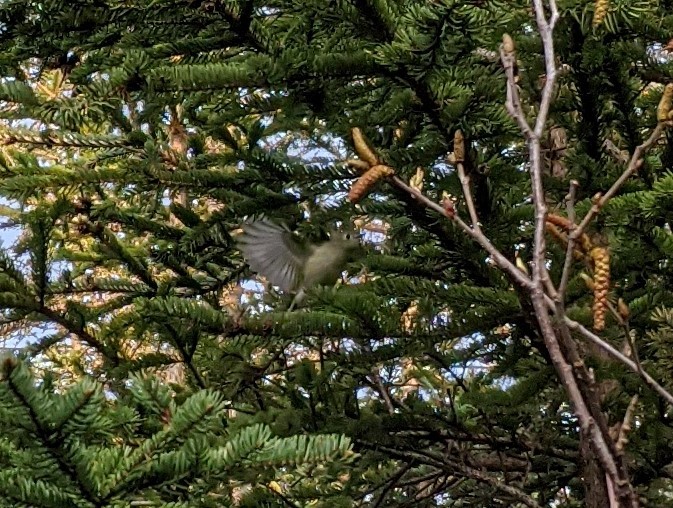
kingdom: Animalia
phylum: Chordata
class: Aves
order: Passeriformes
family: Regulidae
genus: Regulus
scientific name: Regulus calendula
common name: Ruby-crowned kinglet
